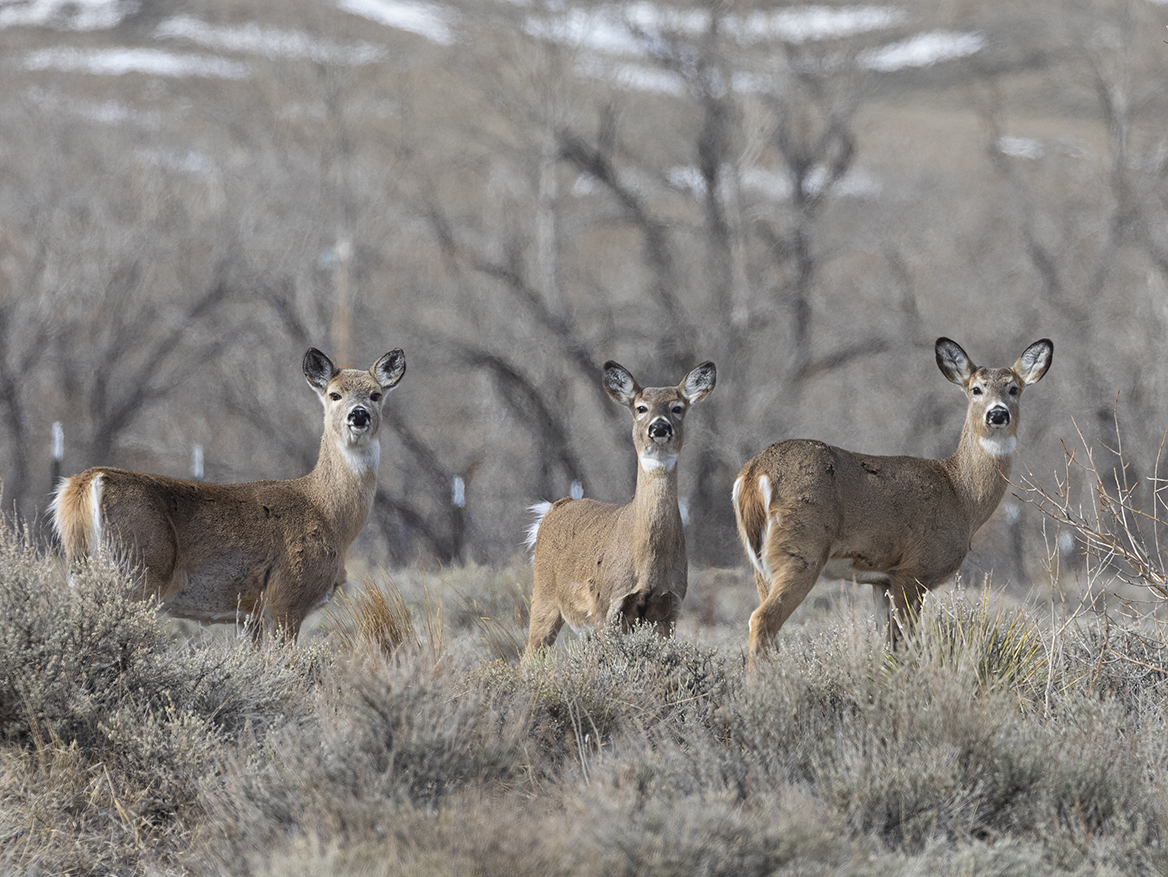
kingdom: Animalia
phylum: Chordata
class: Mammalia
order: Artiodactyla
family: Cervidae
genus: Odocoileus
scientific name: Odocoileus virginianus
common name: White-tailed deer
